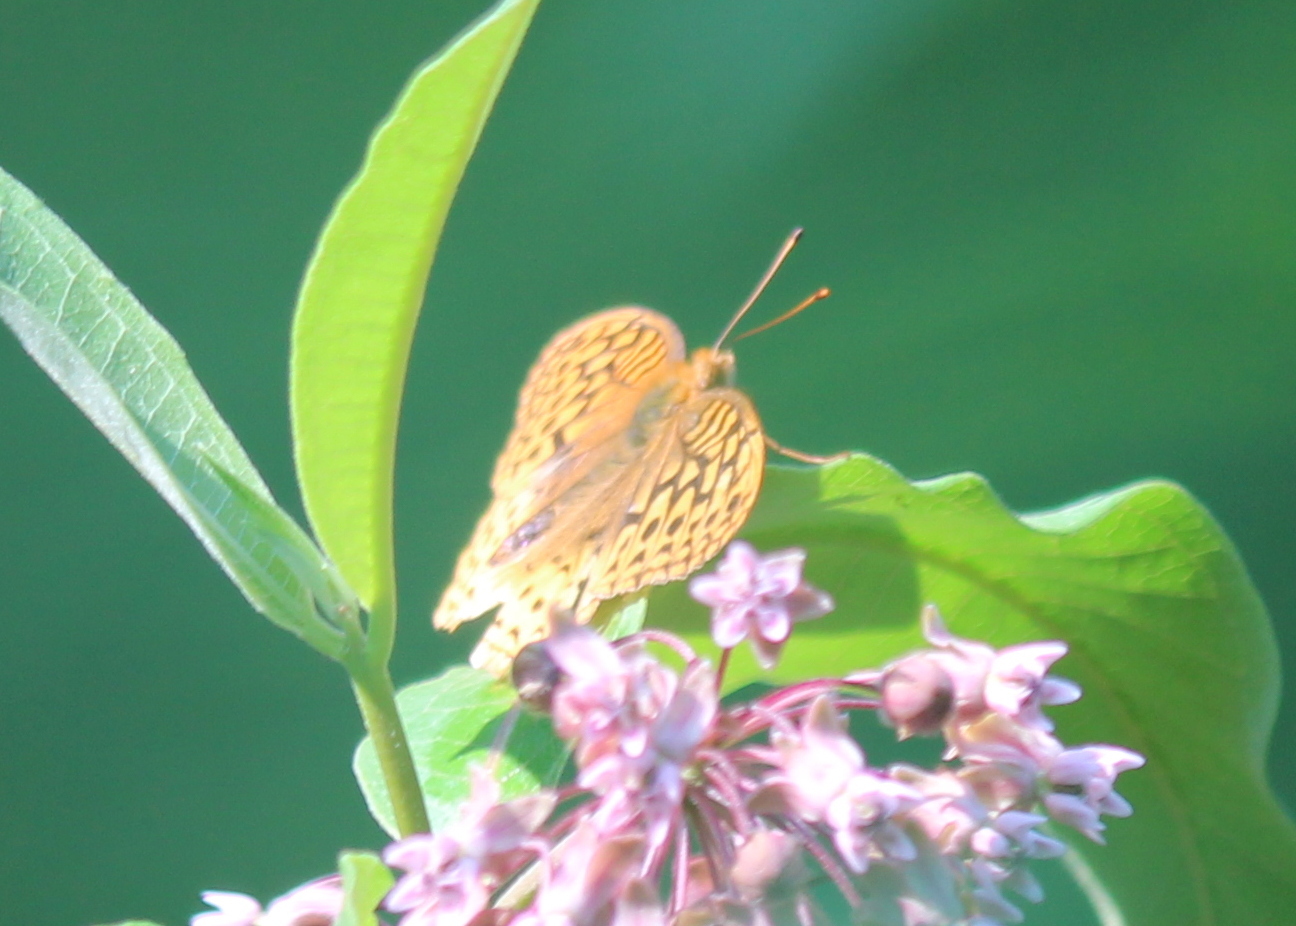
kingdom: Animalia
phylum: Arthropoda
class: Insecta
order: Lepidoptera
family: Nymphalidae
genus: Speyeria
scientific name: Speyeria cybele
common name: Great spangled fritillary
